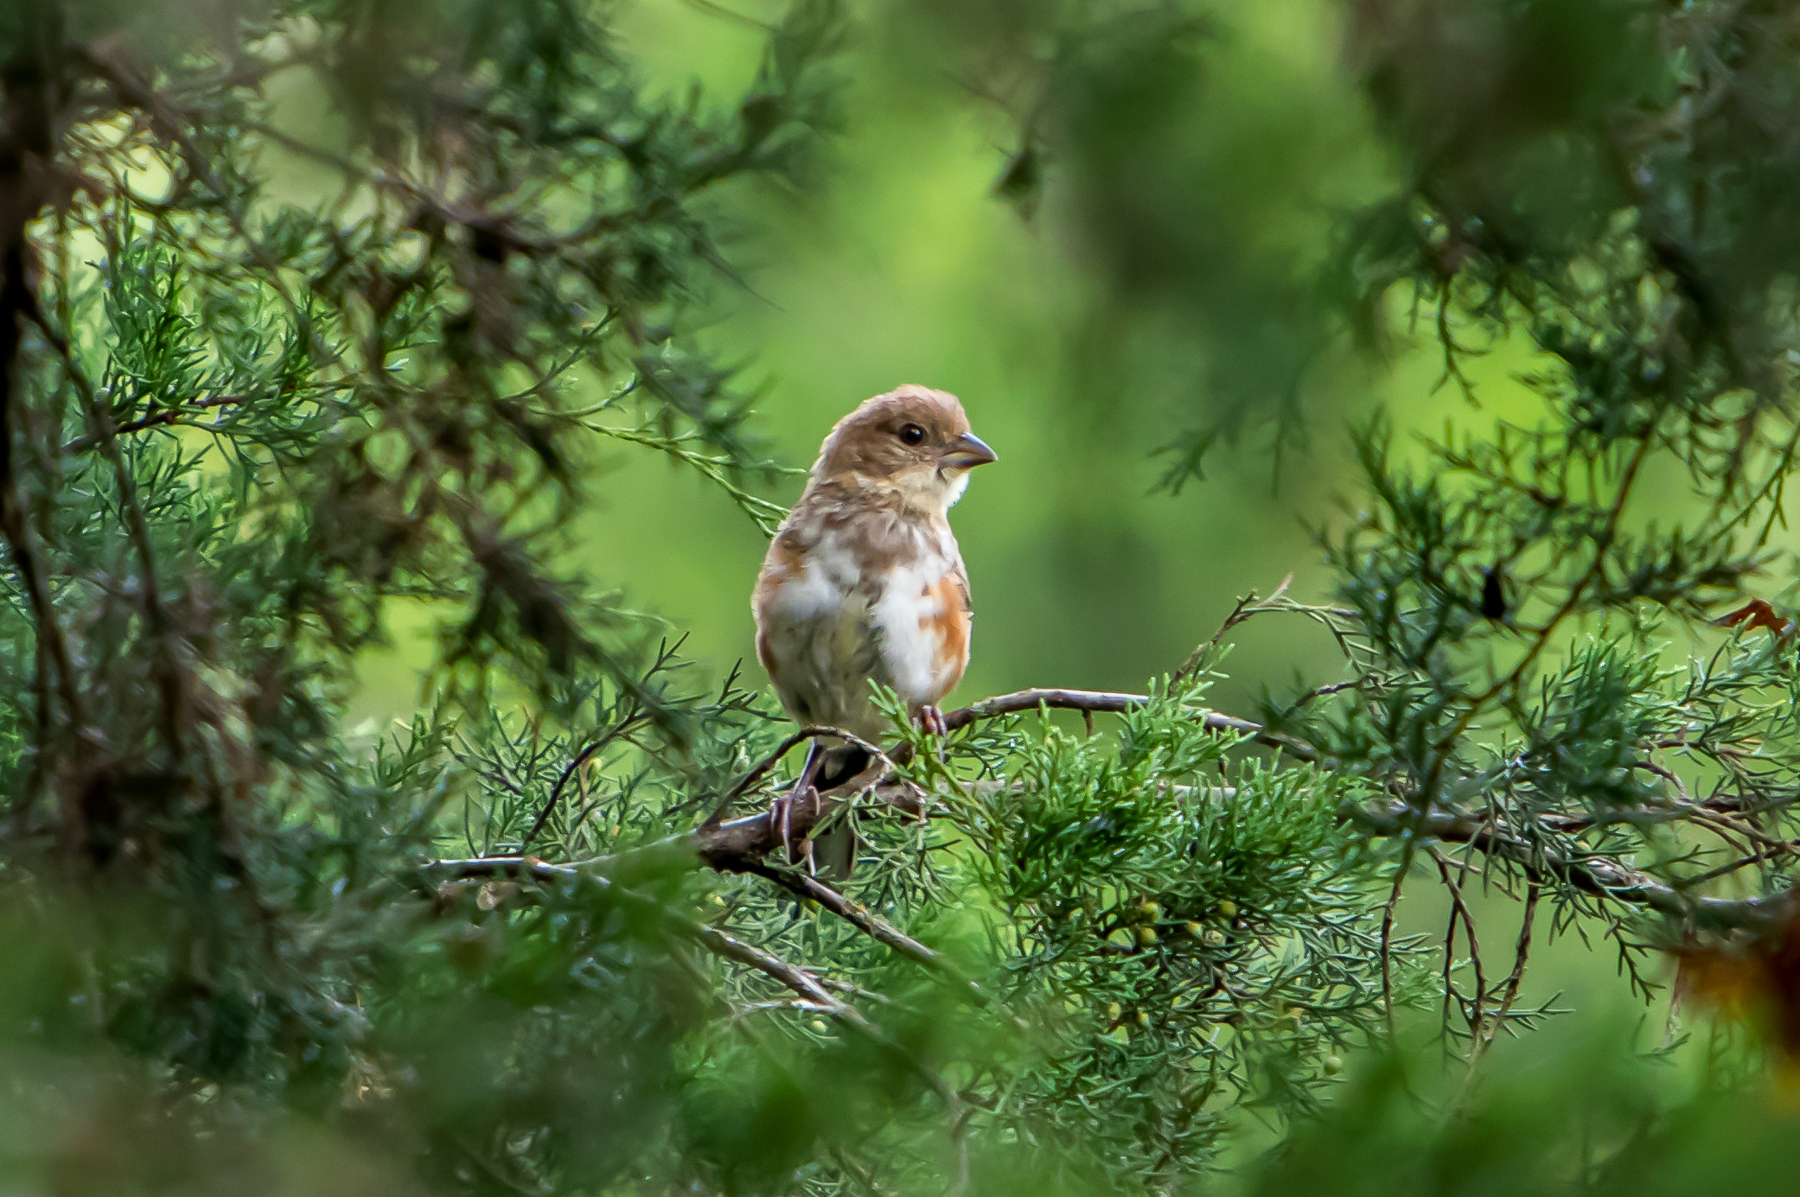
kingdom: Animalia
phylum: Chordata
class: Aves
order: Passeriformes
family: Passerellidae
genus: Pipilo
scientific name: Pipilo erythrophthalmus
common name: Eastern towhee
